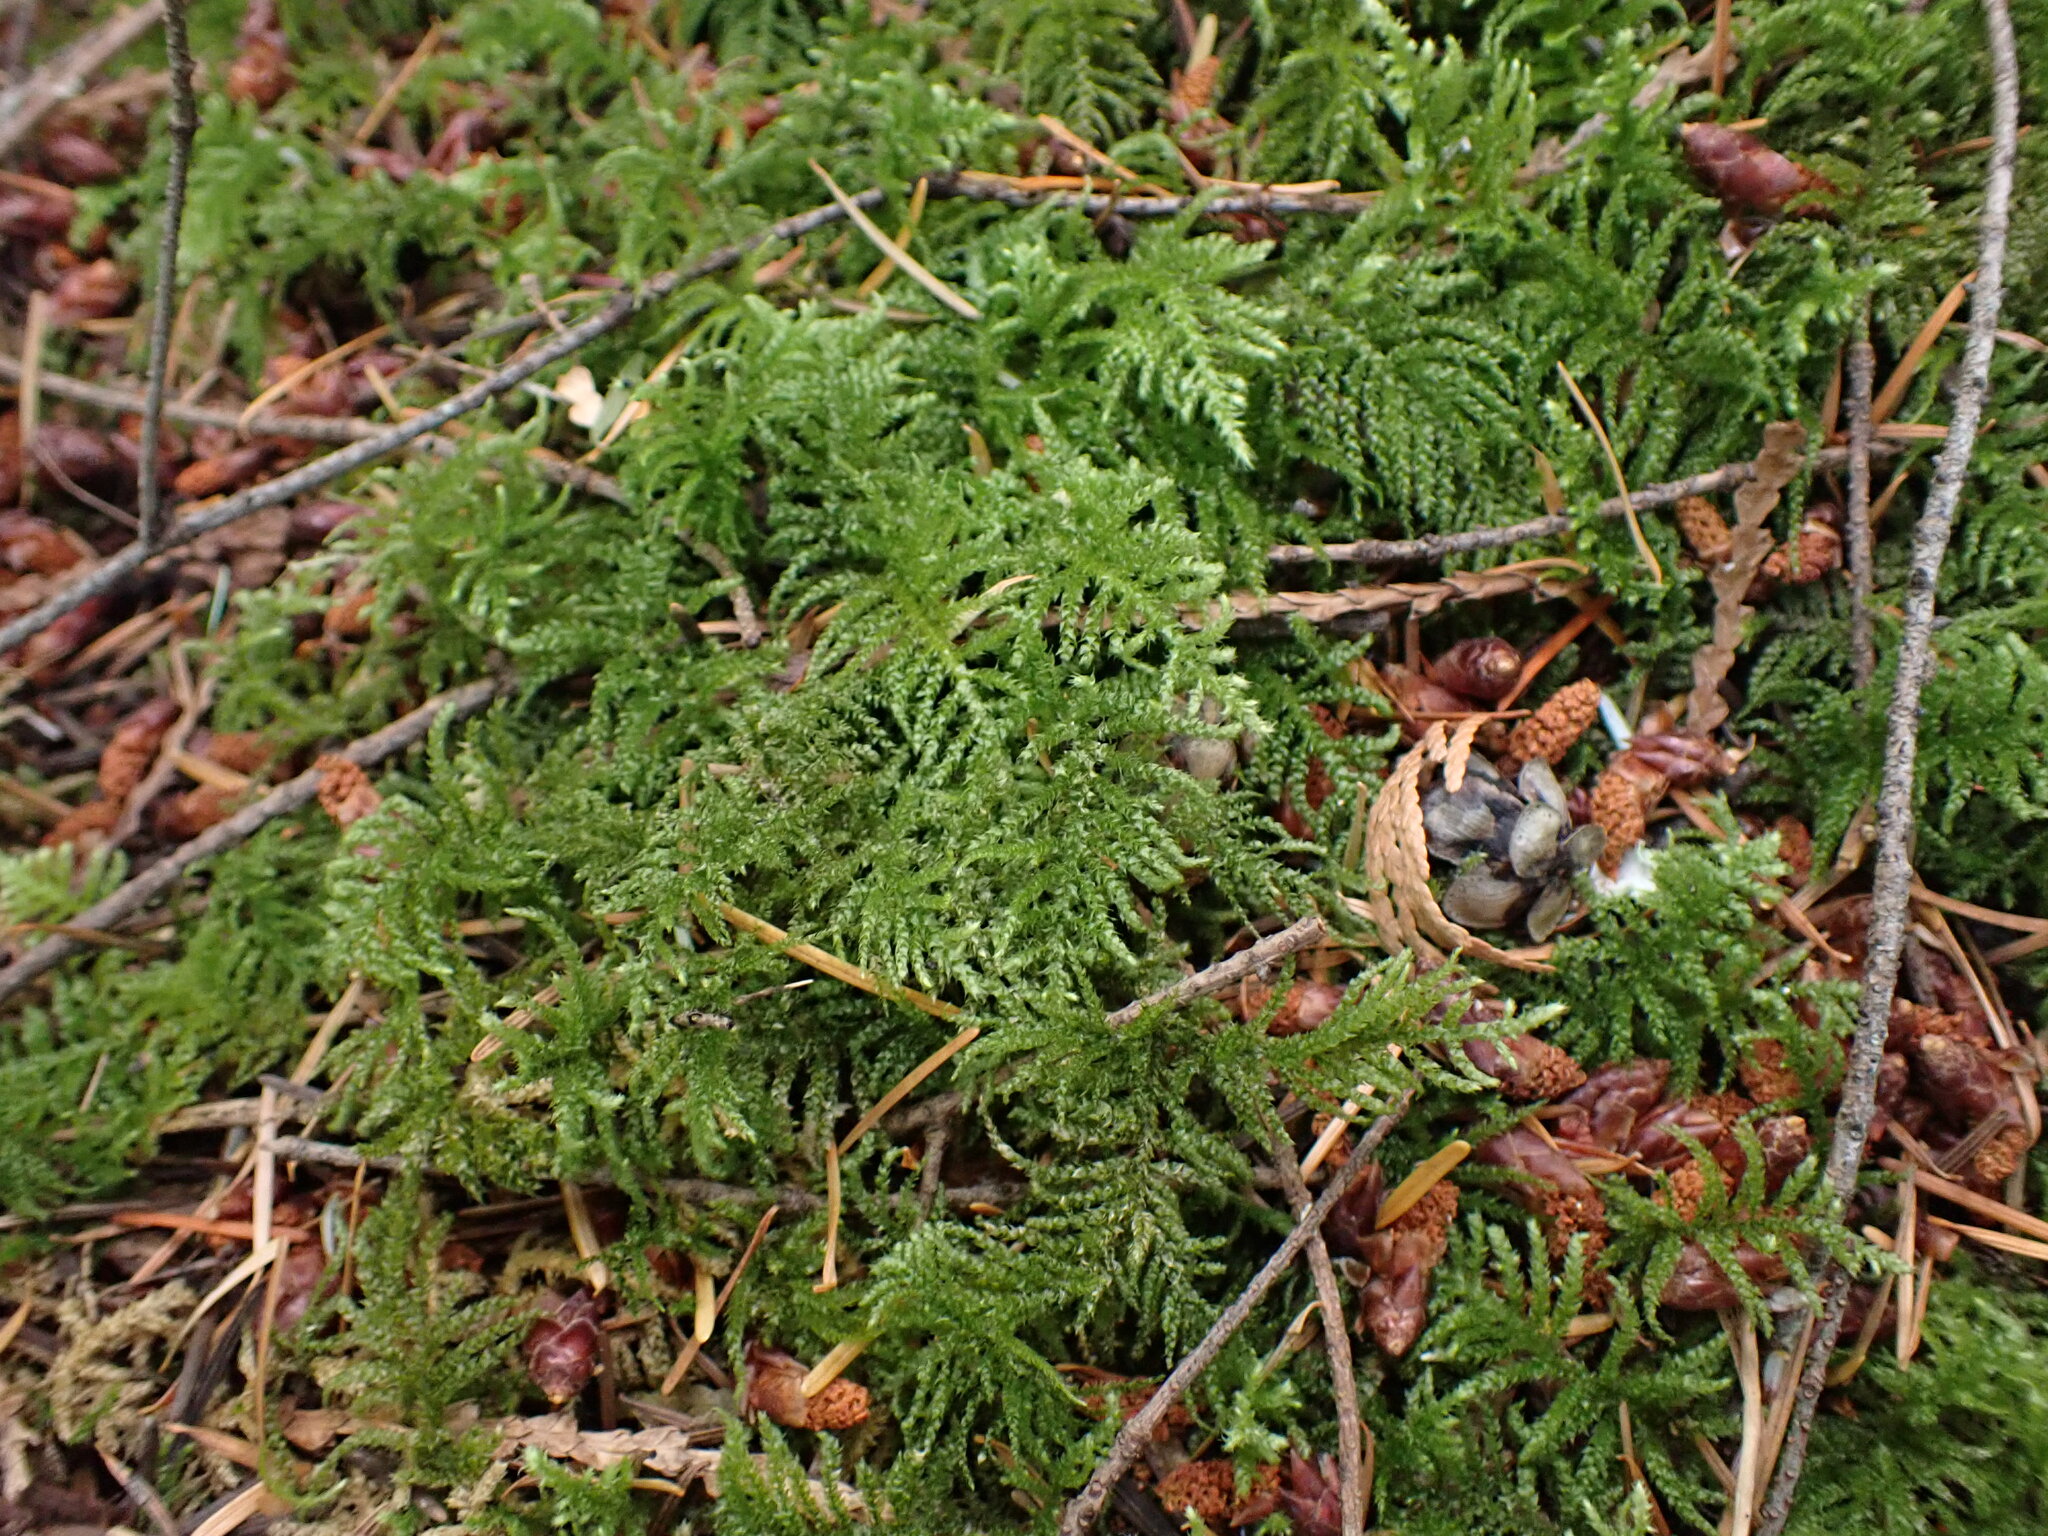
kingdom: Plantae
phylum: Bryophyta
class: Bryopsida
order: Hypnales
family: Brachytheciaceae
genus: Kindbergia
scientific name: Kindbergia oregana
